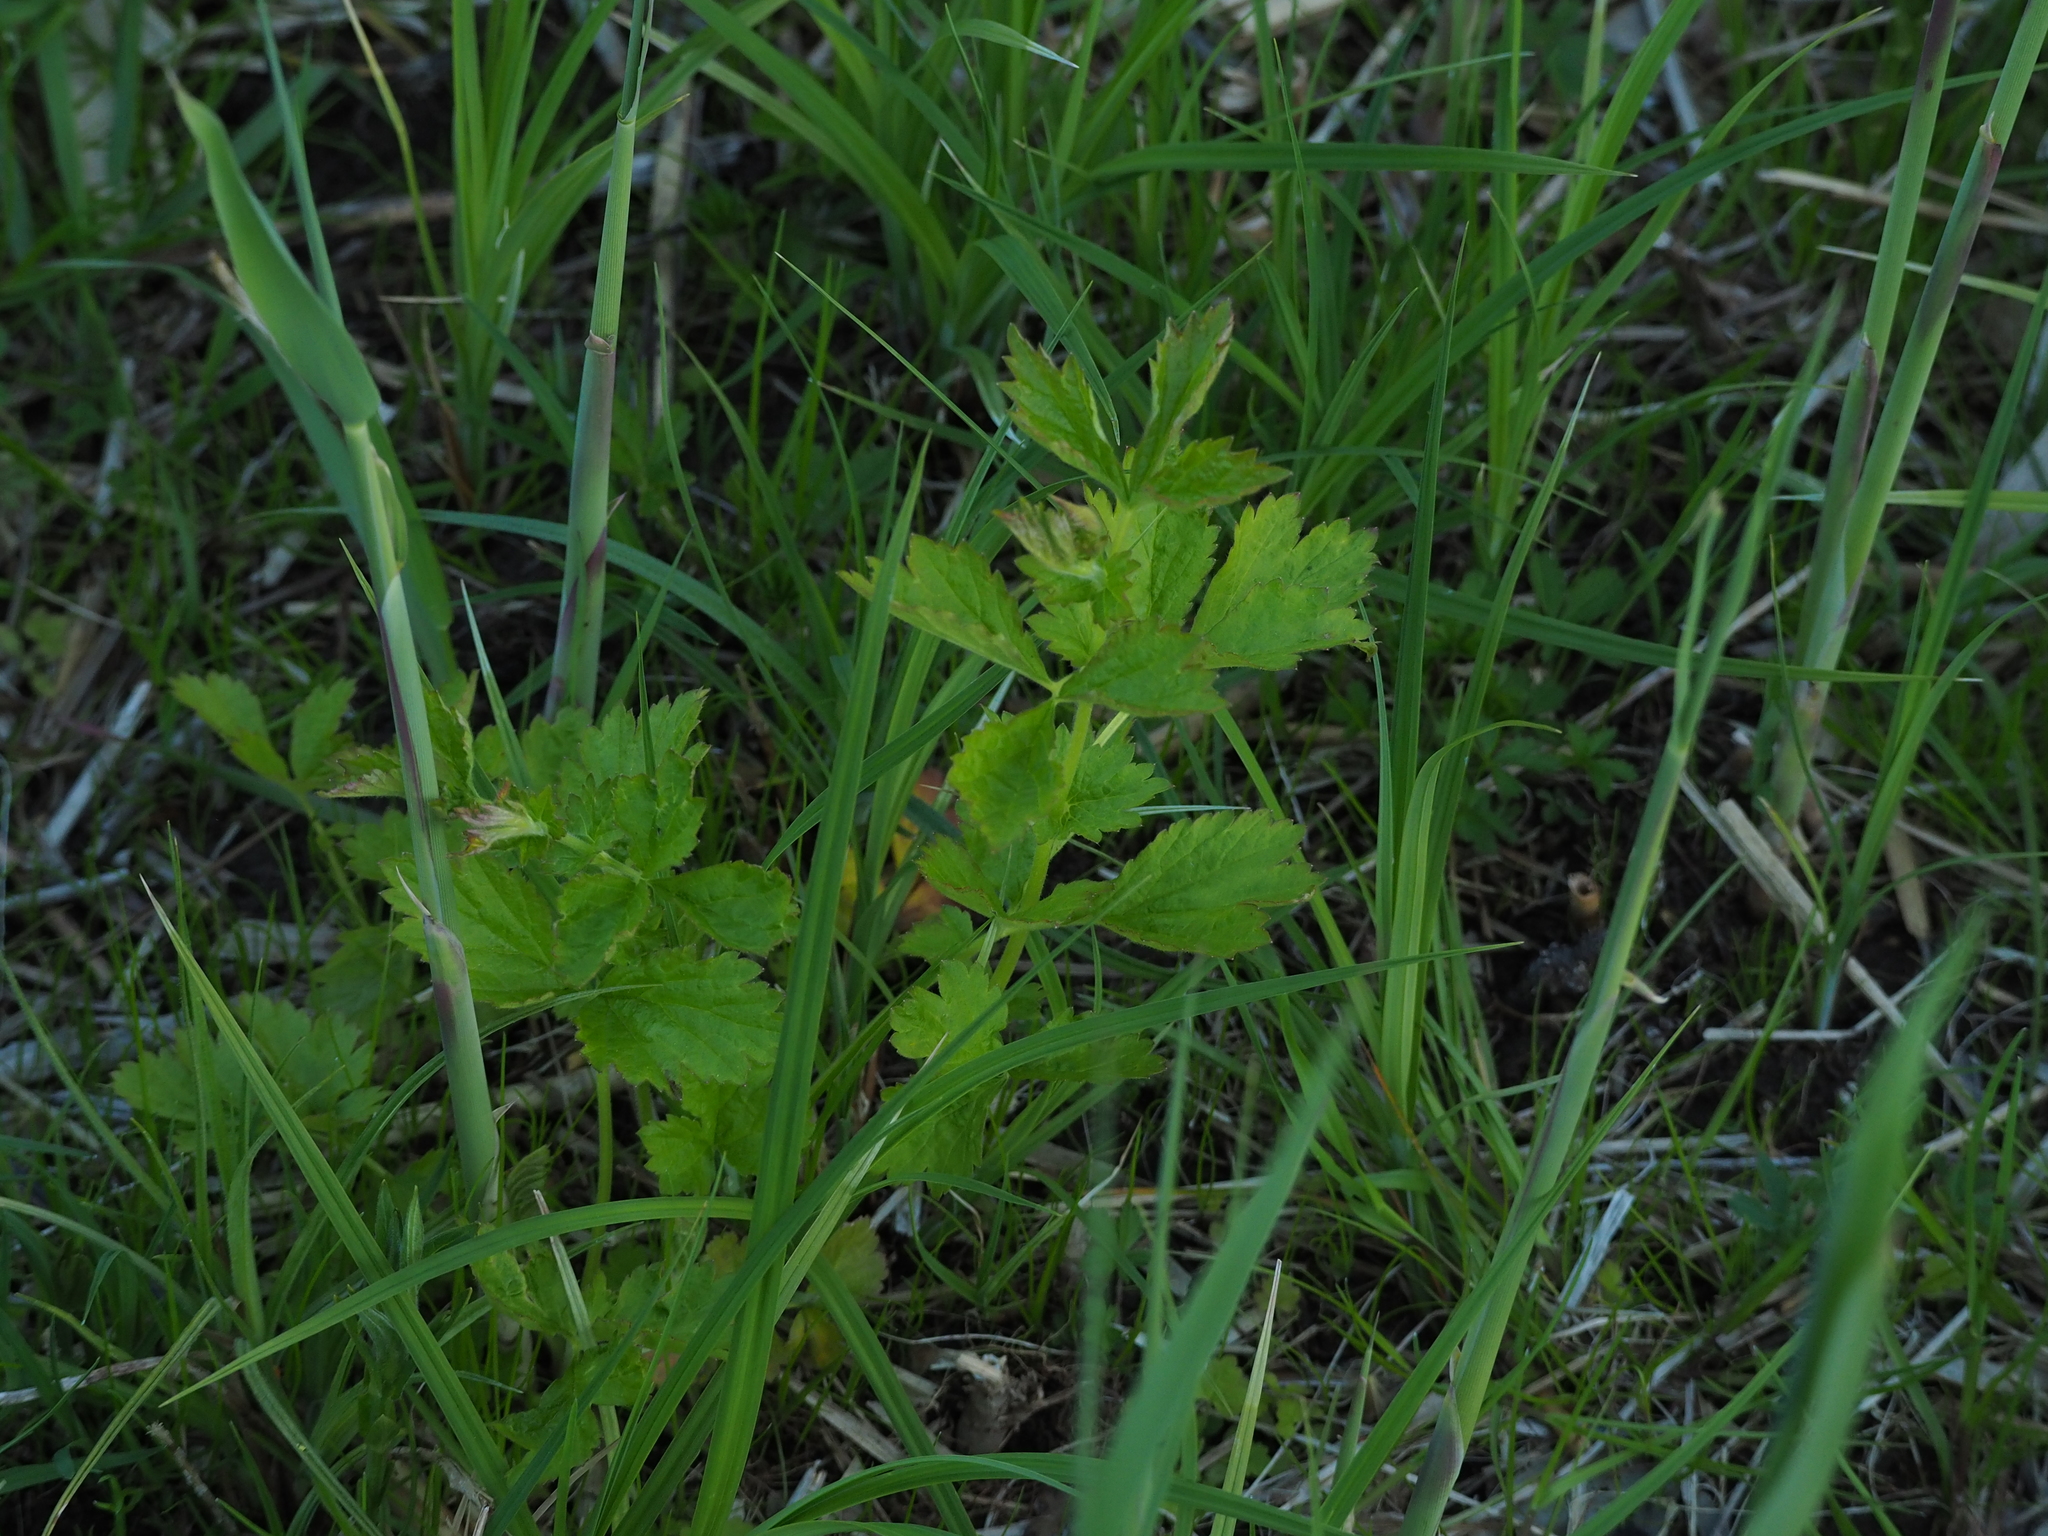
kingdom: Plantae
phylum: Tracheophyta
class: Magnoliopsida
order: Rosales
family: Rosaceae
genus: Geum
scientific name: Geum urbanum
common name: Wood avens
